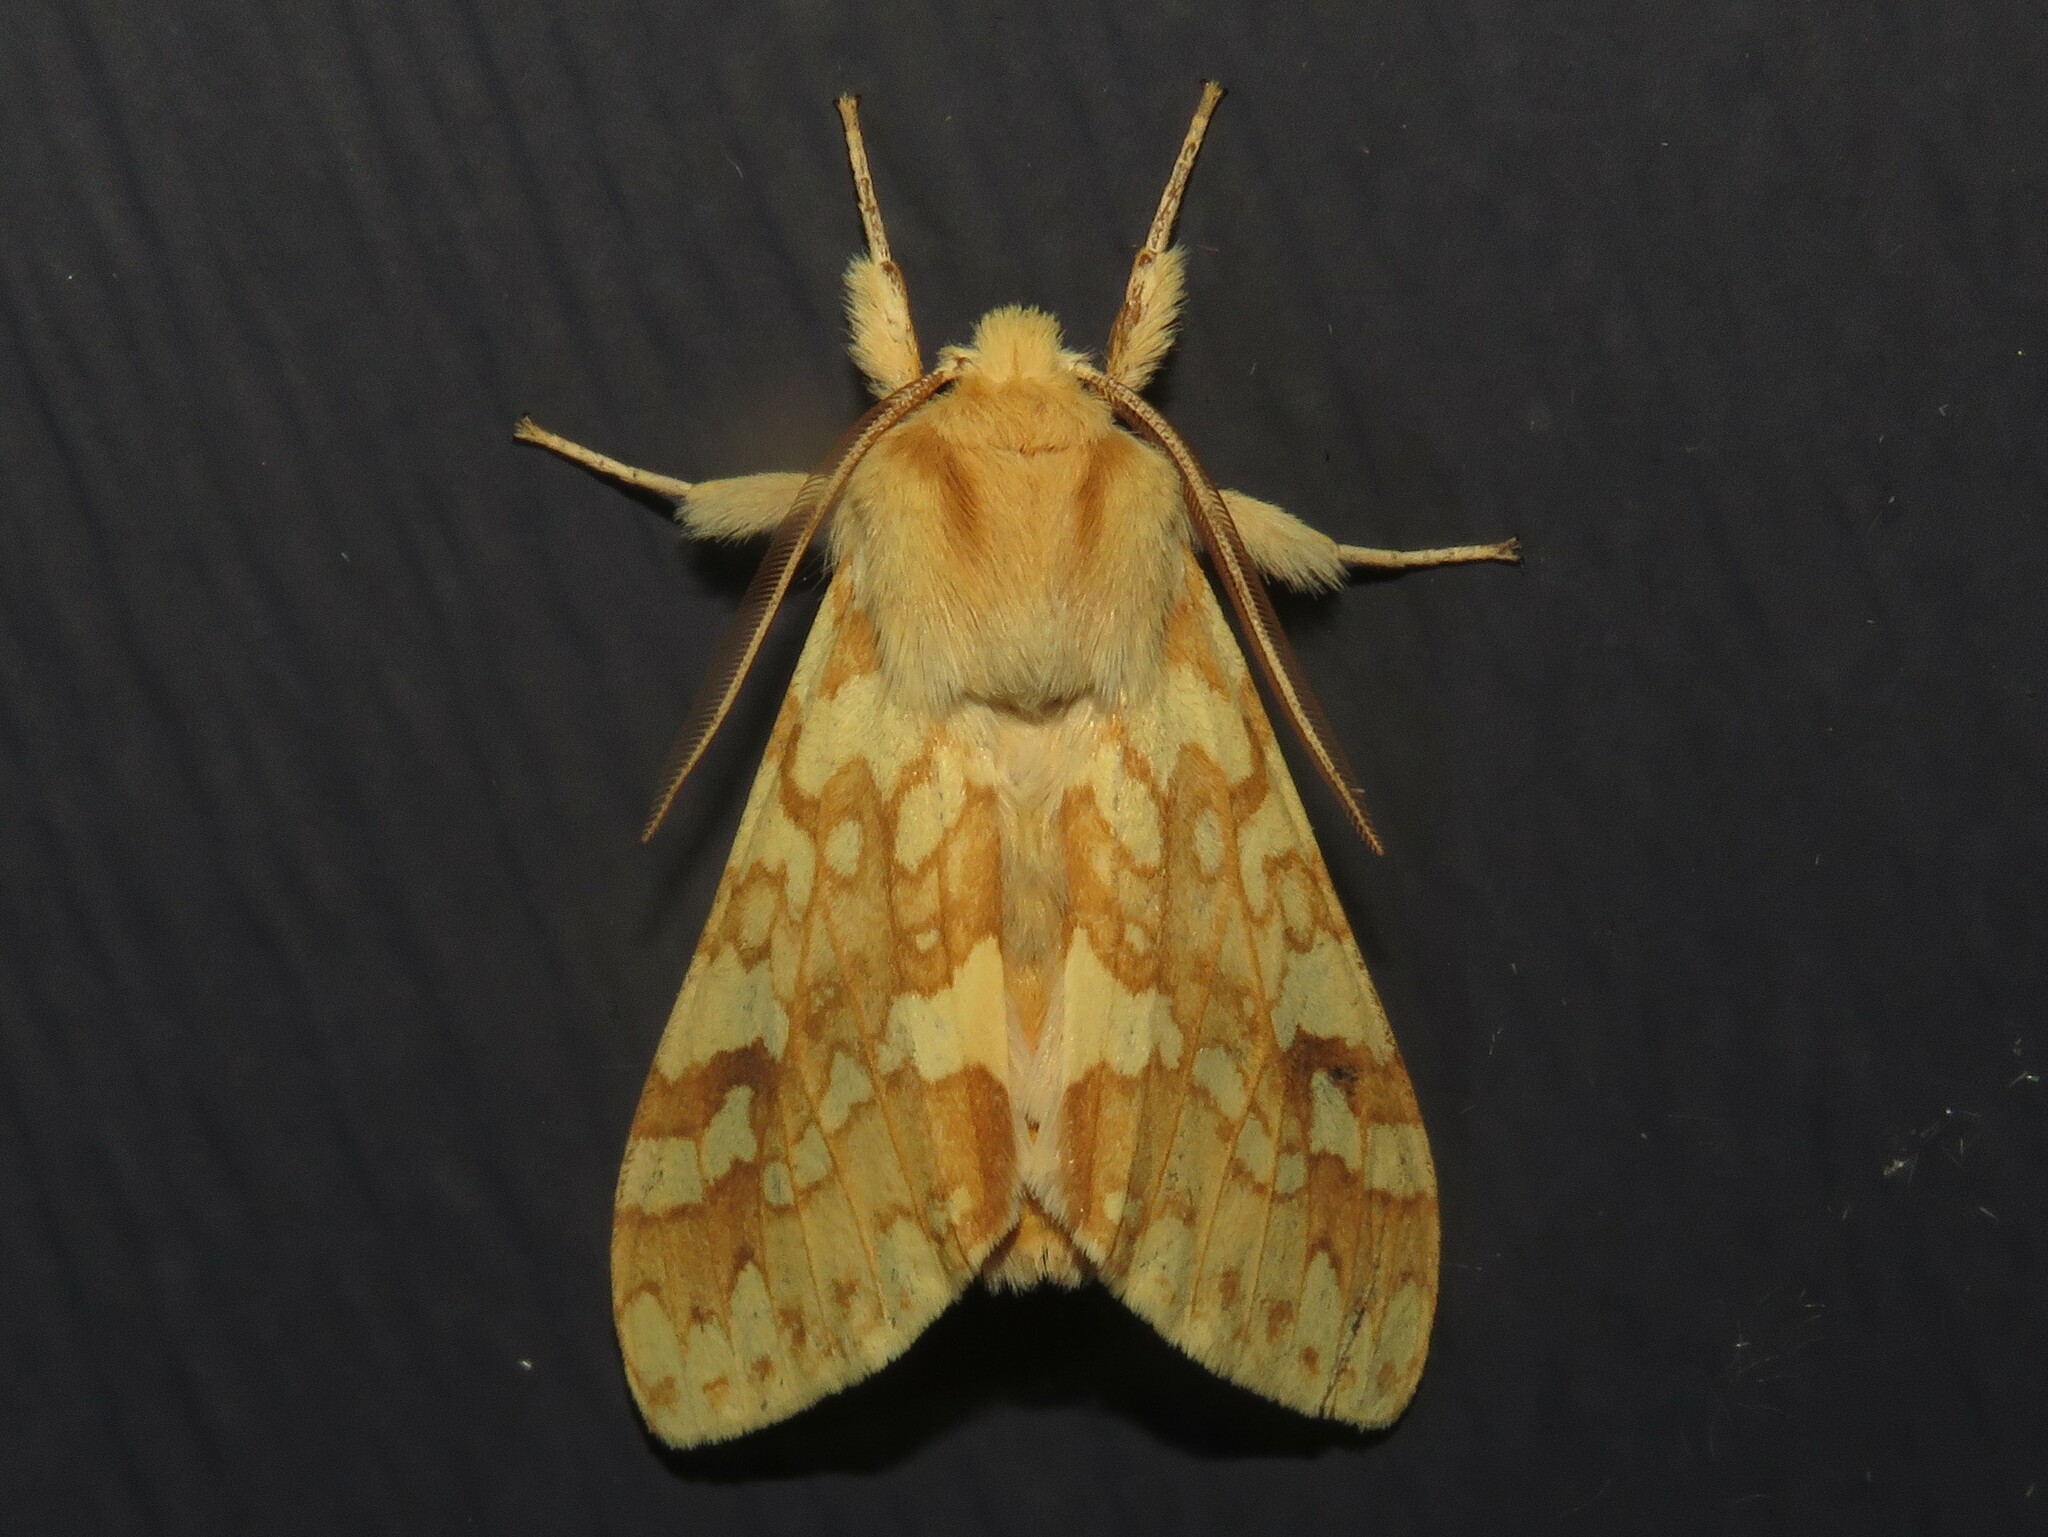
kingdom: Animalia
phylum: Arthropoda
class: Insecta
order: Lepidoptera
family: Erebidae
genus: Lophocampa
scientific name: Lophocampa maculata
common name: Spotted tussock moth
